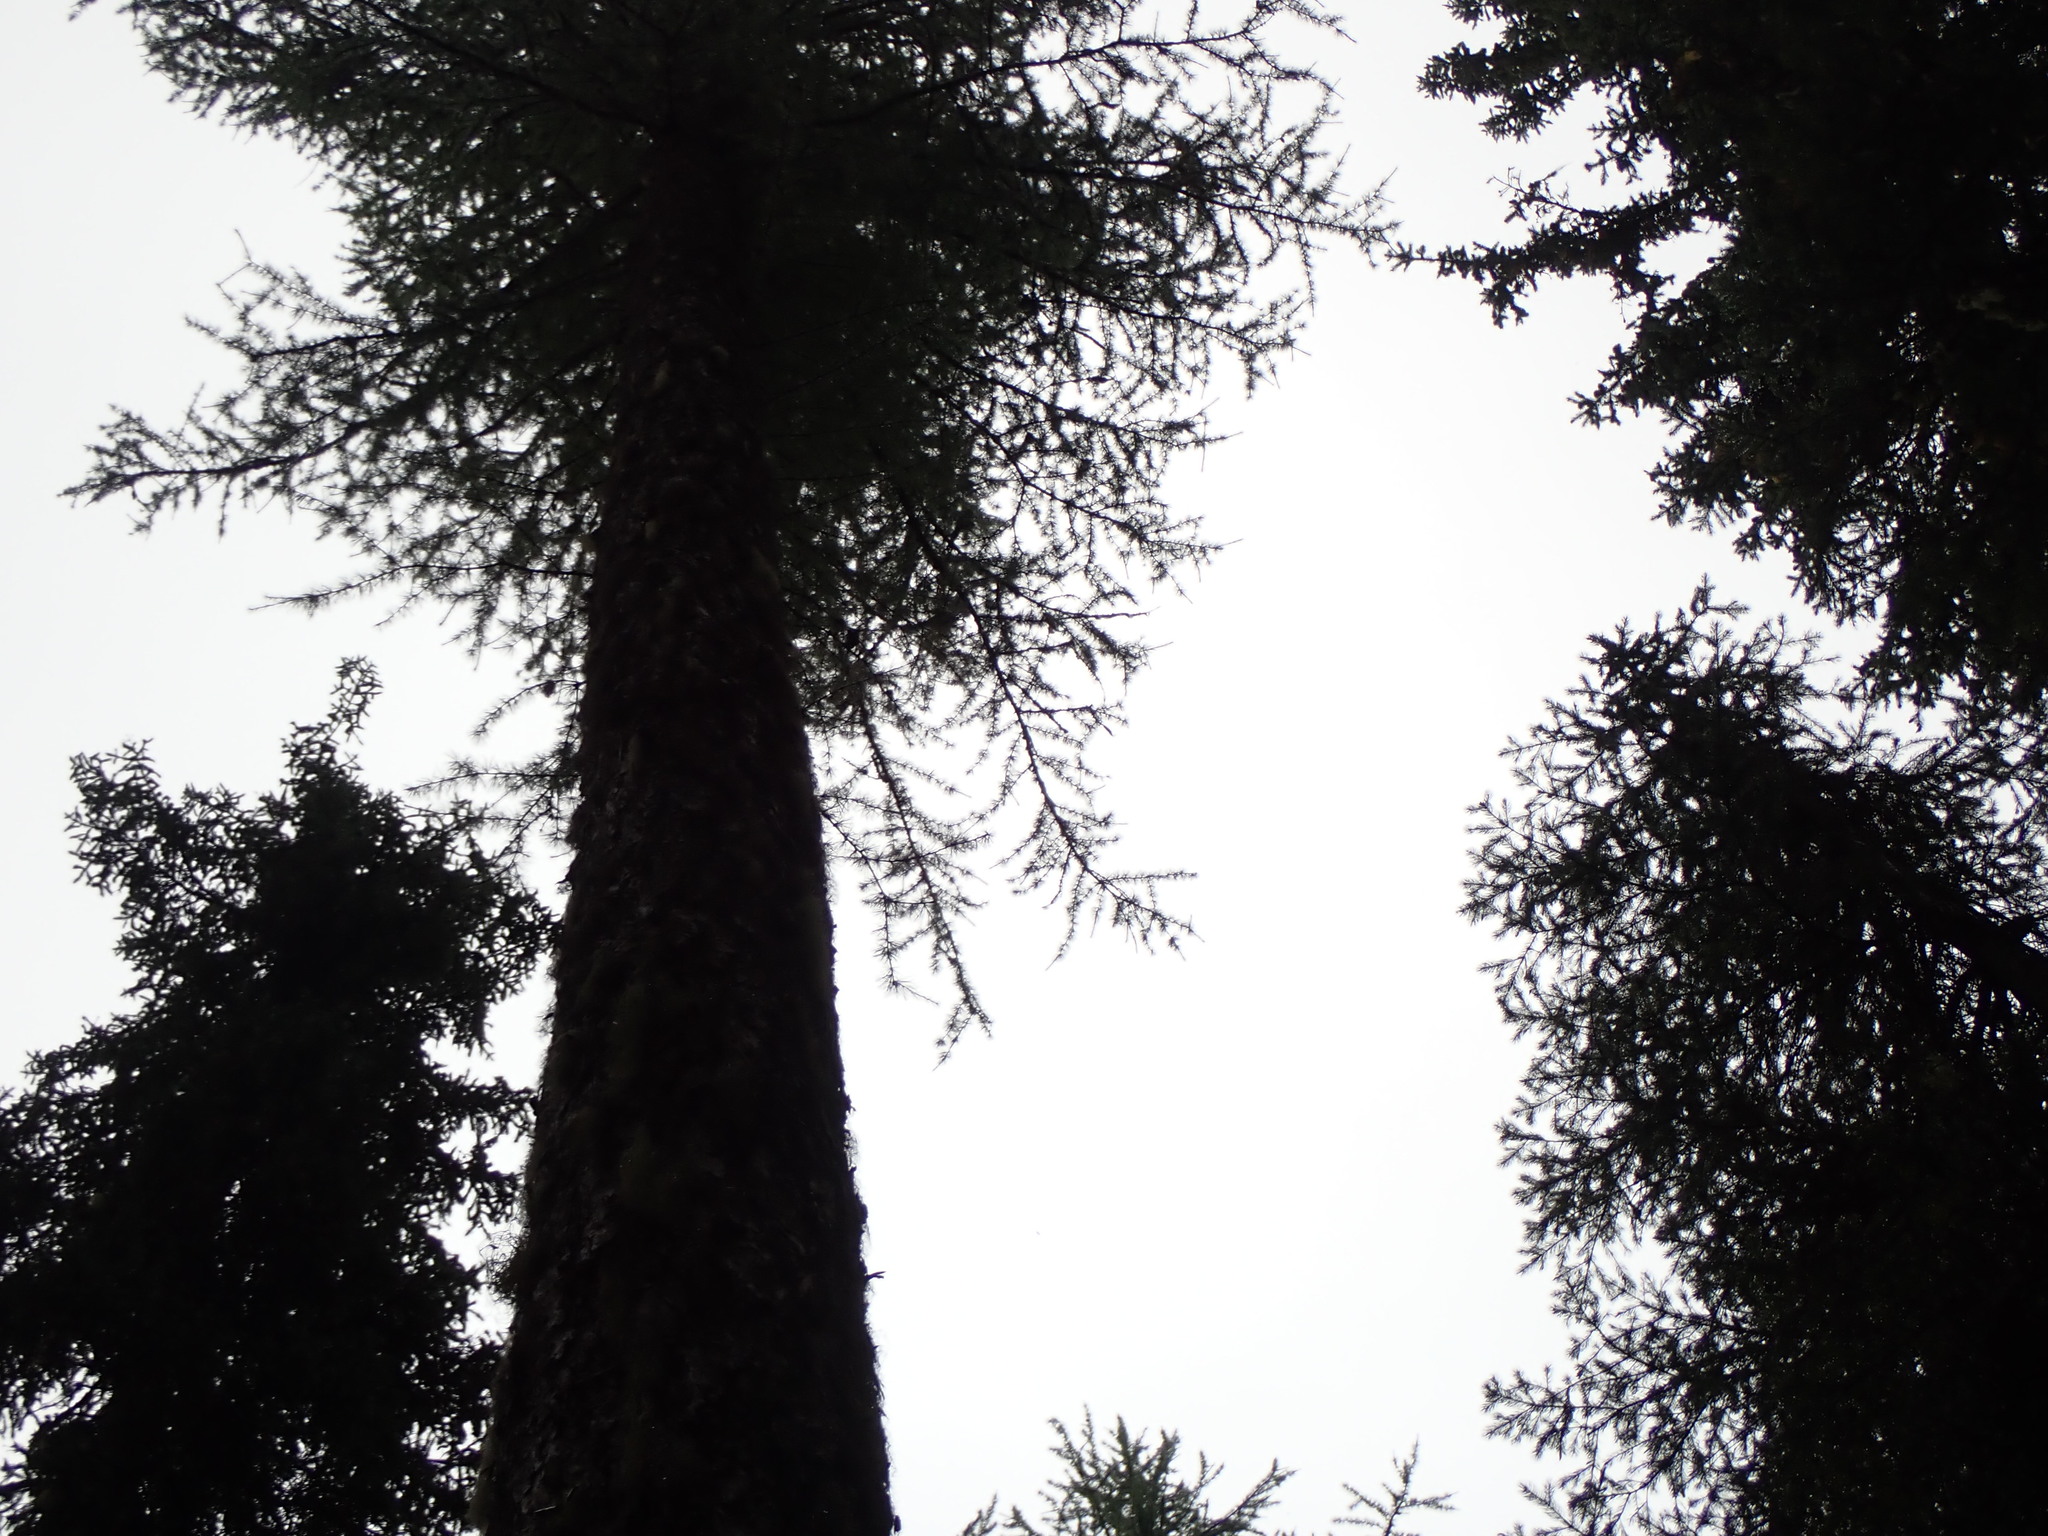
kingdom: Plantae
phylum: Tracheophyta
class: Pinopsida
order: Pinales
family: Pinaceae
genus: Larix
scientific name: Larix occidentalis
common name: Western larch
